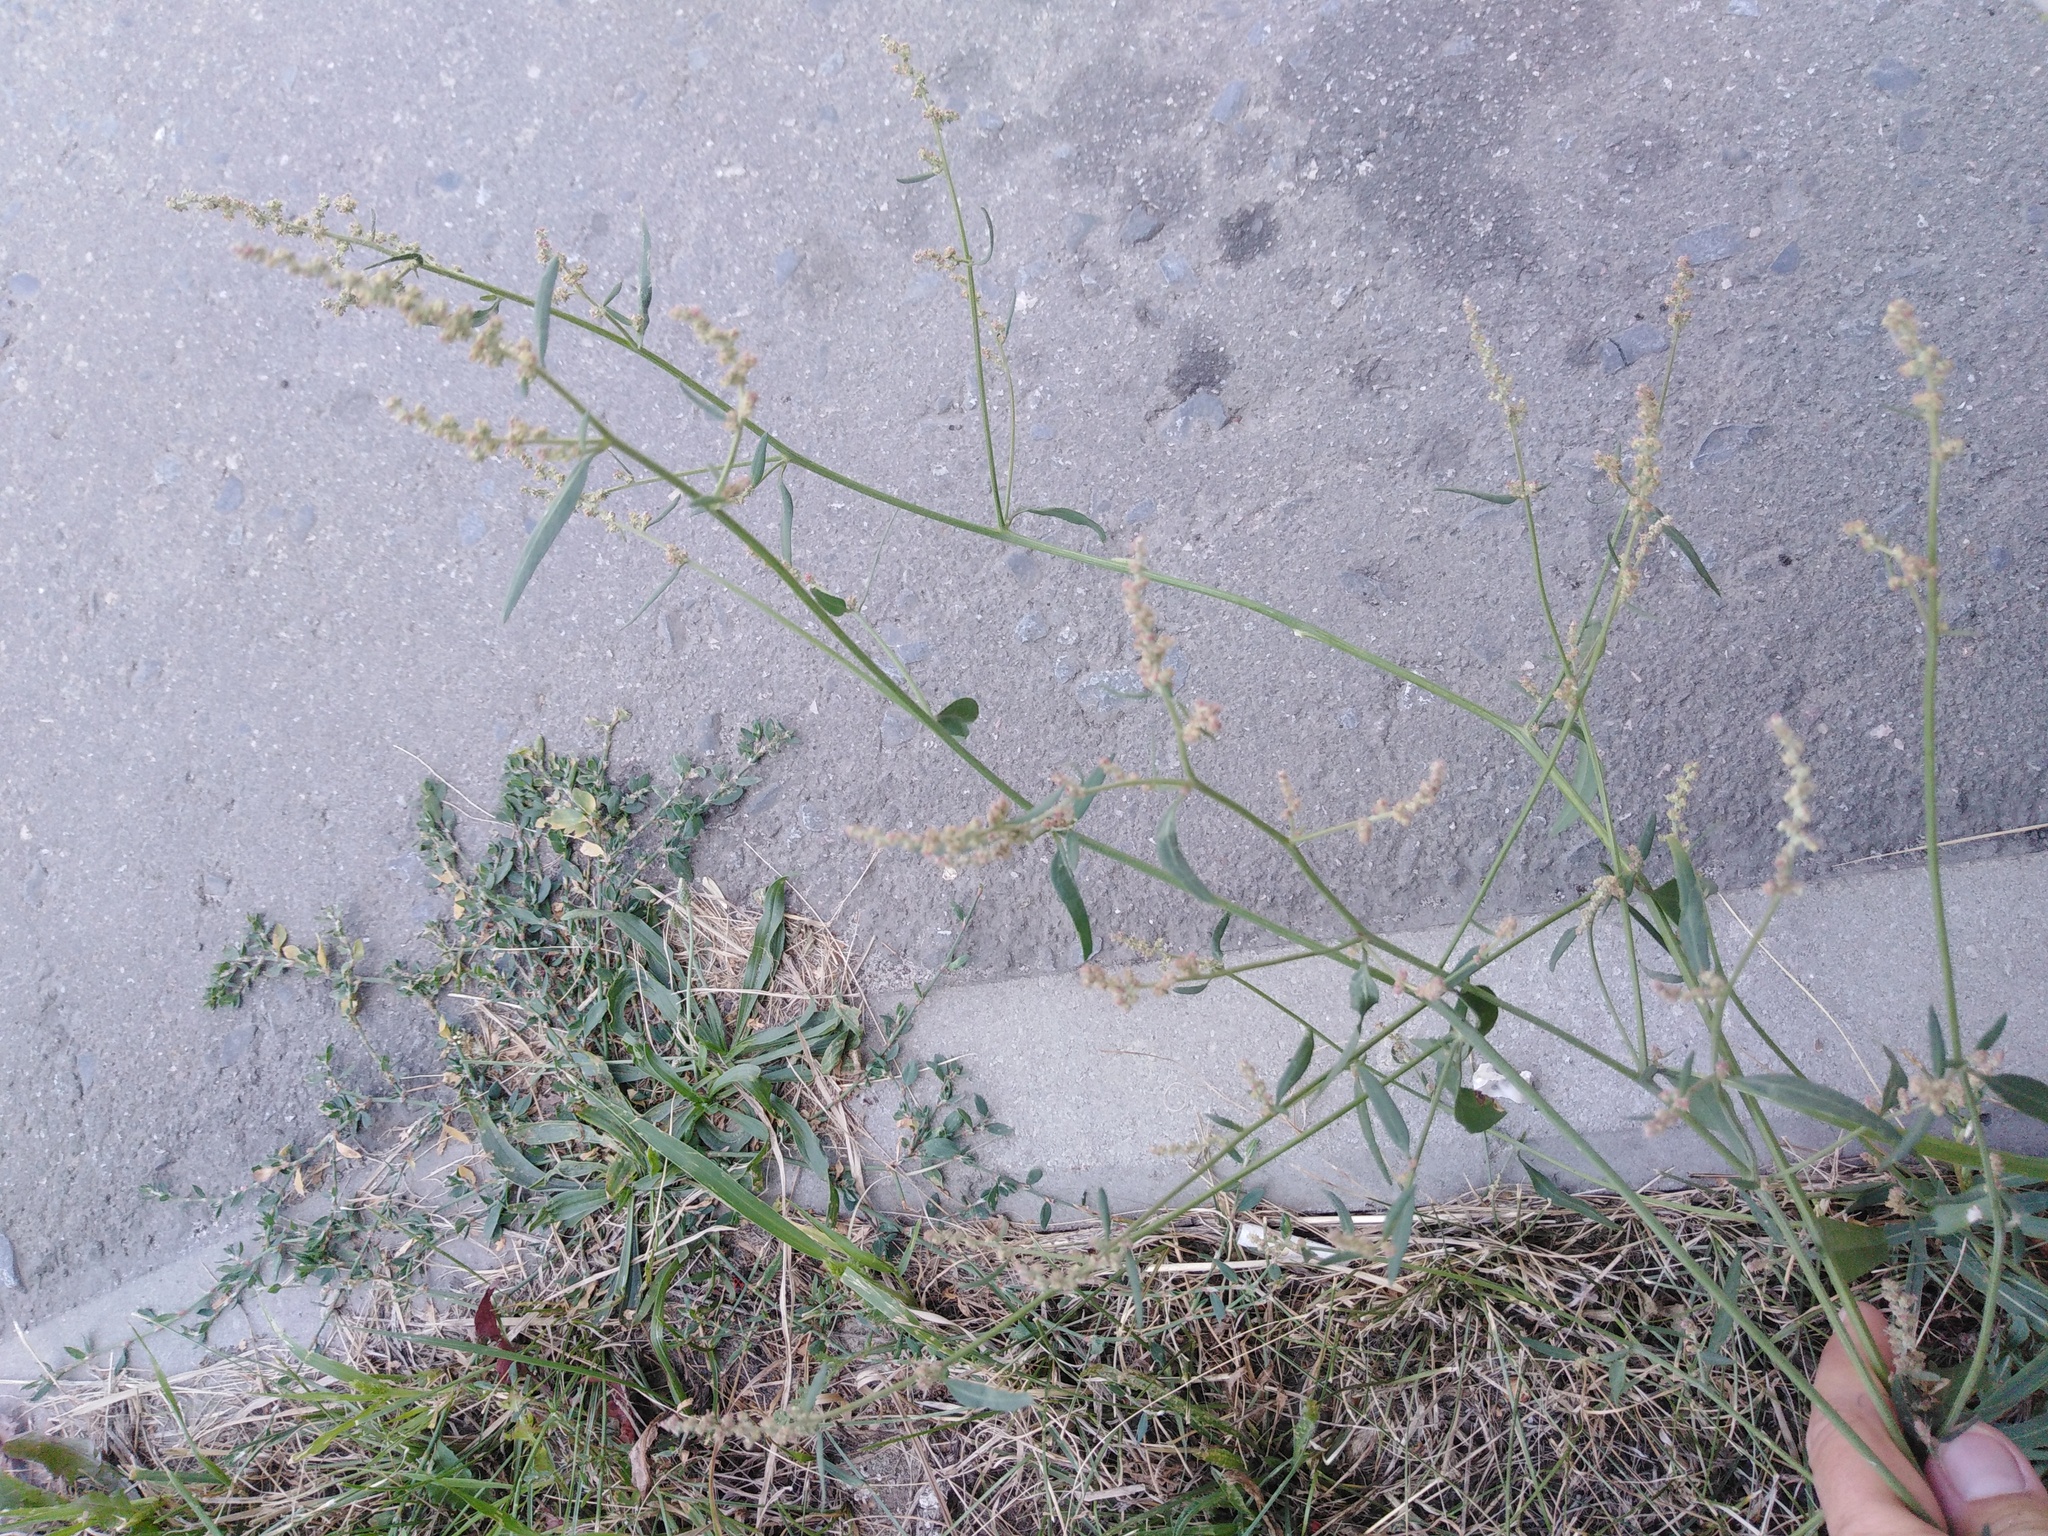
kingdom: Plantae
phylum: Tracheophyta
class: Magnoliopsida
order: Caryophyllales
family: Amaranthaceae
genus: Atriplex
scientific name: Atriplex patula
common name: Common orache
